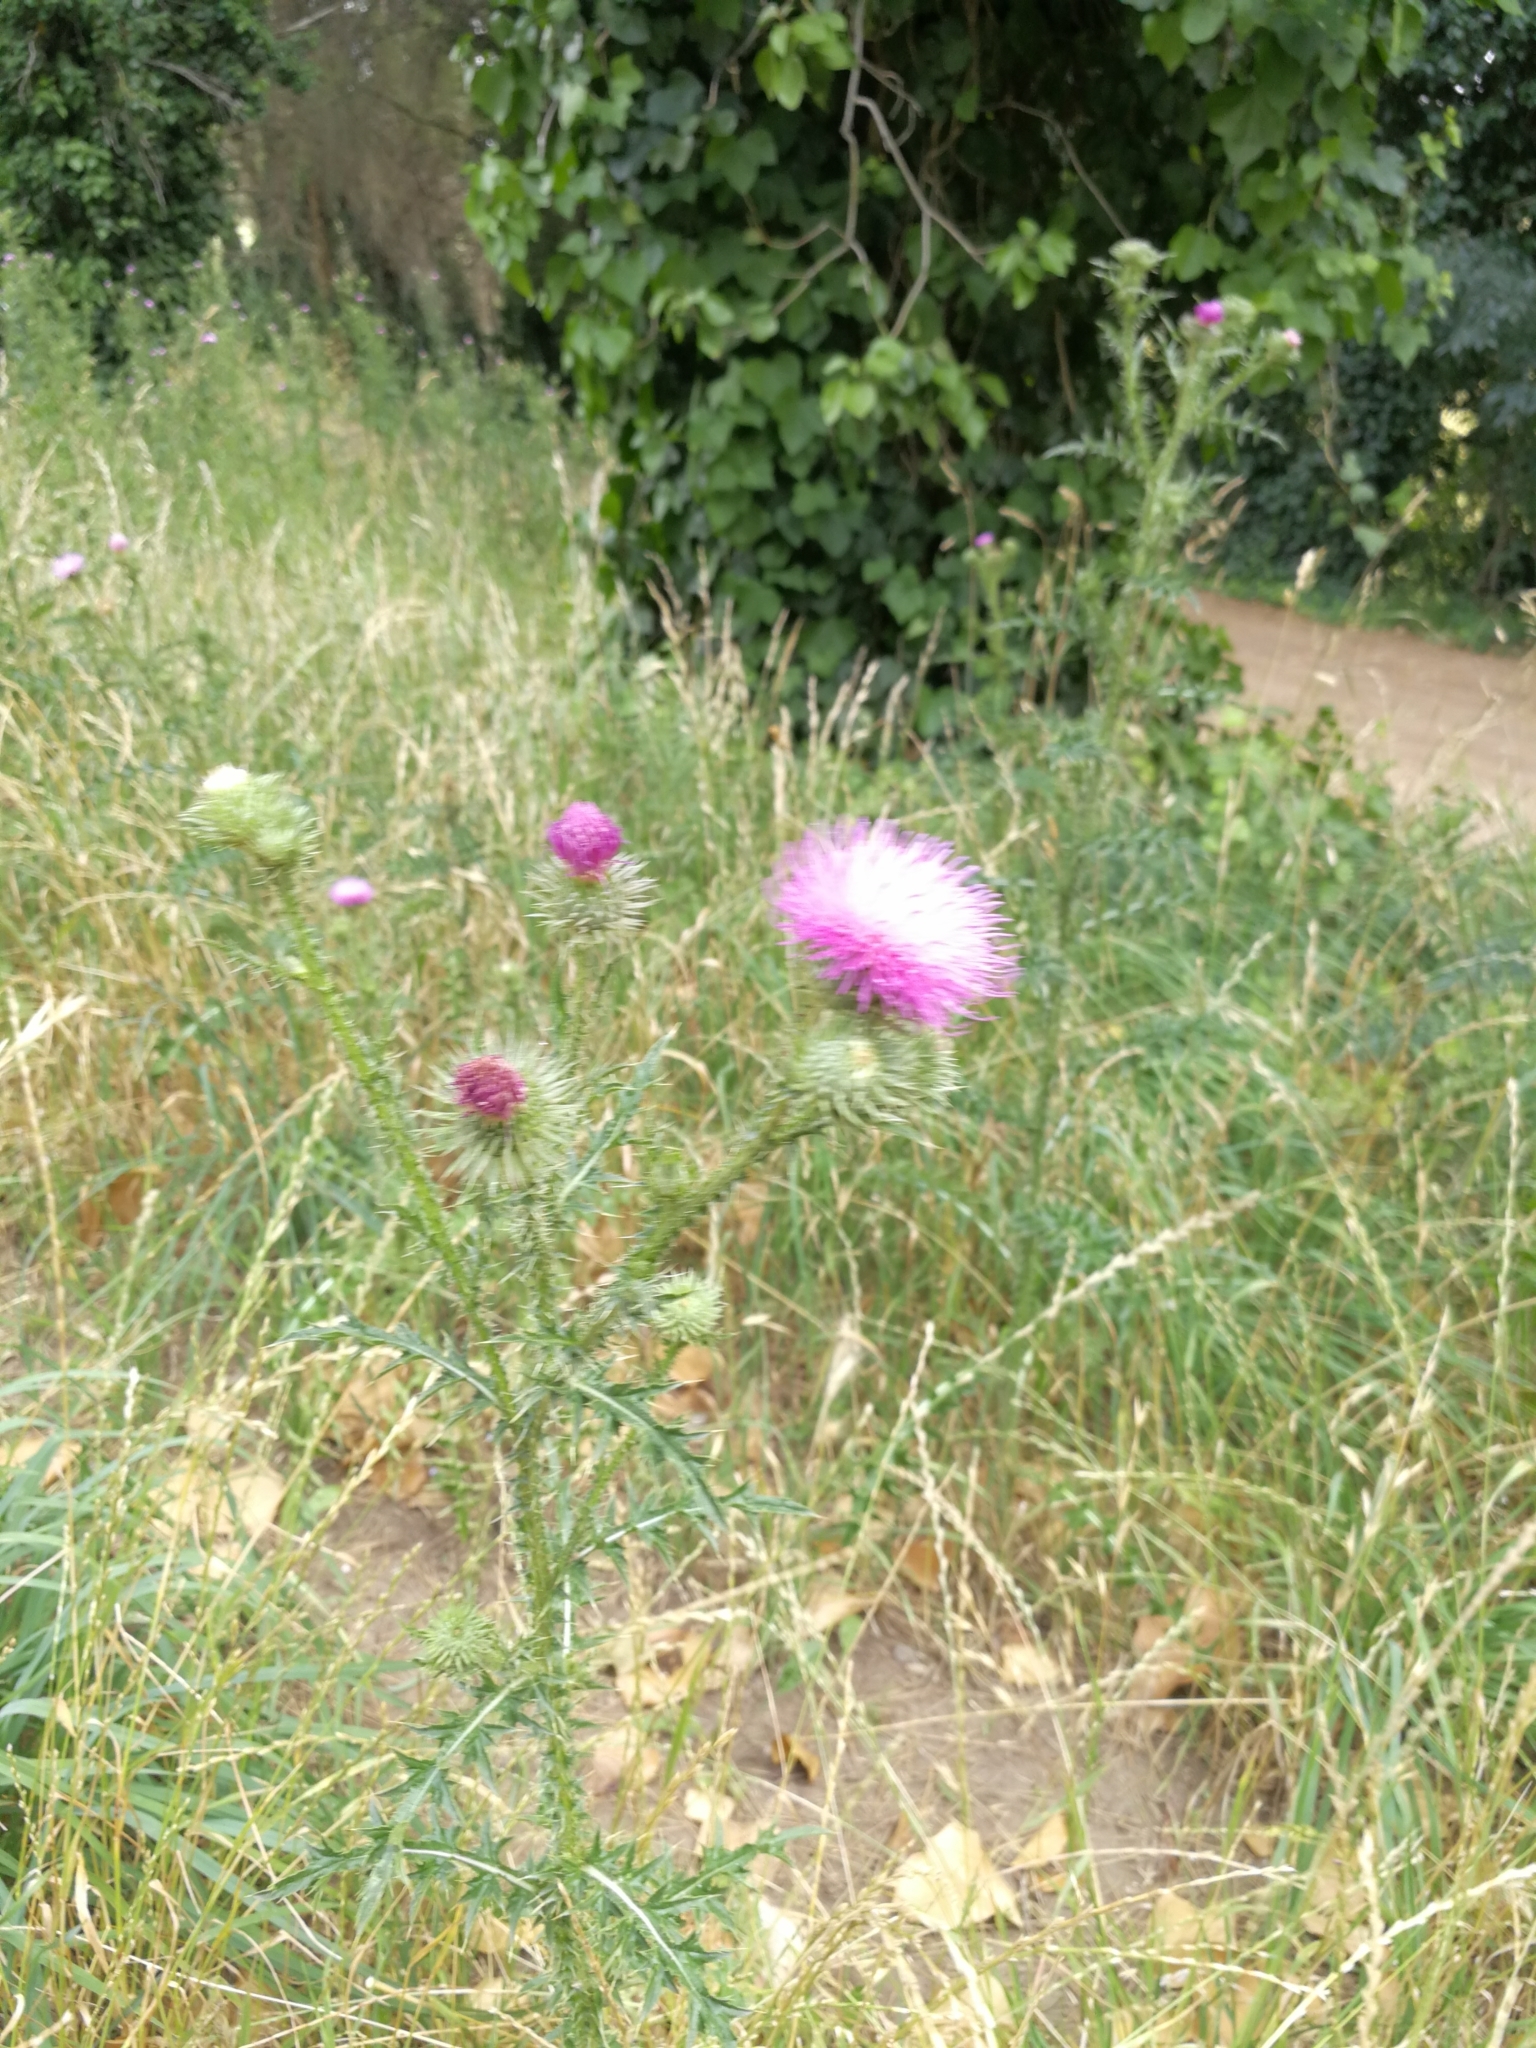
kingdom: Plantae
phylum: Tracheophyta
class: Magnoliopsida
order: Asterales
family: Asteraceae
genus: Cirsium
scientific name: Cirsium vulgare
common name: Bull thistle
